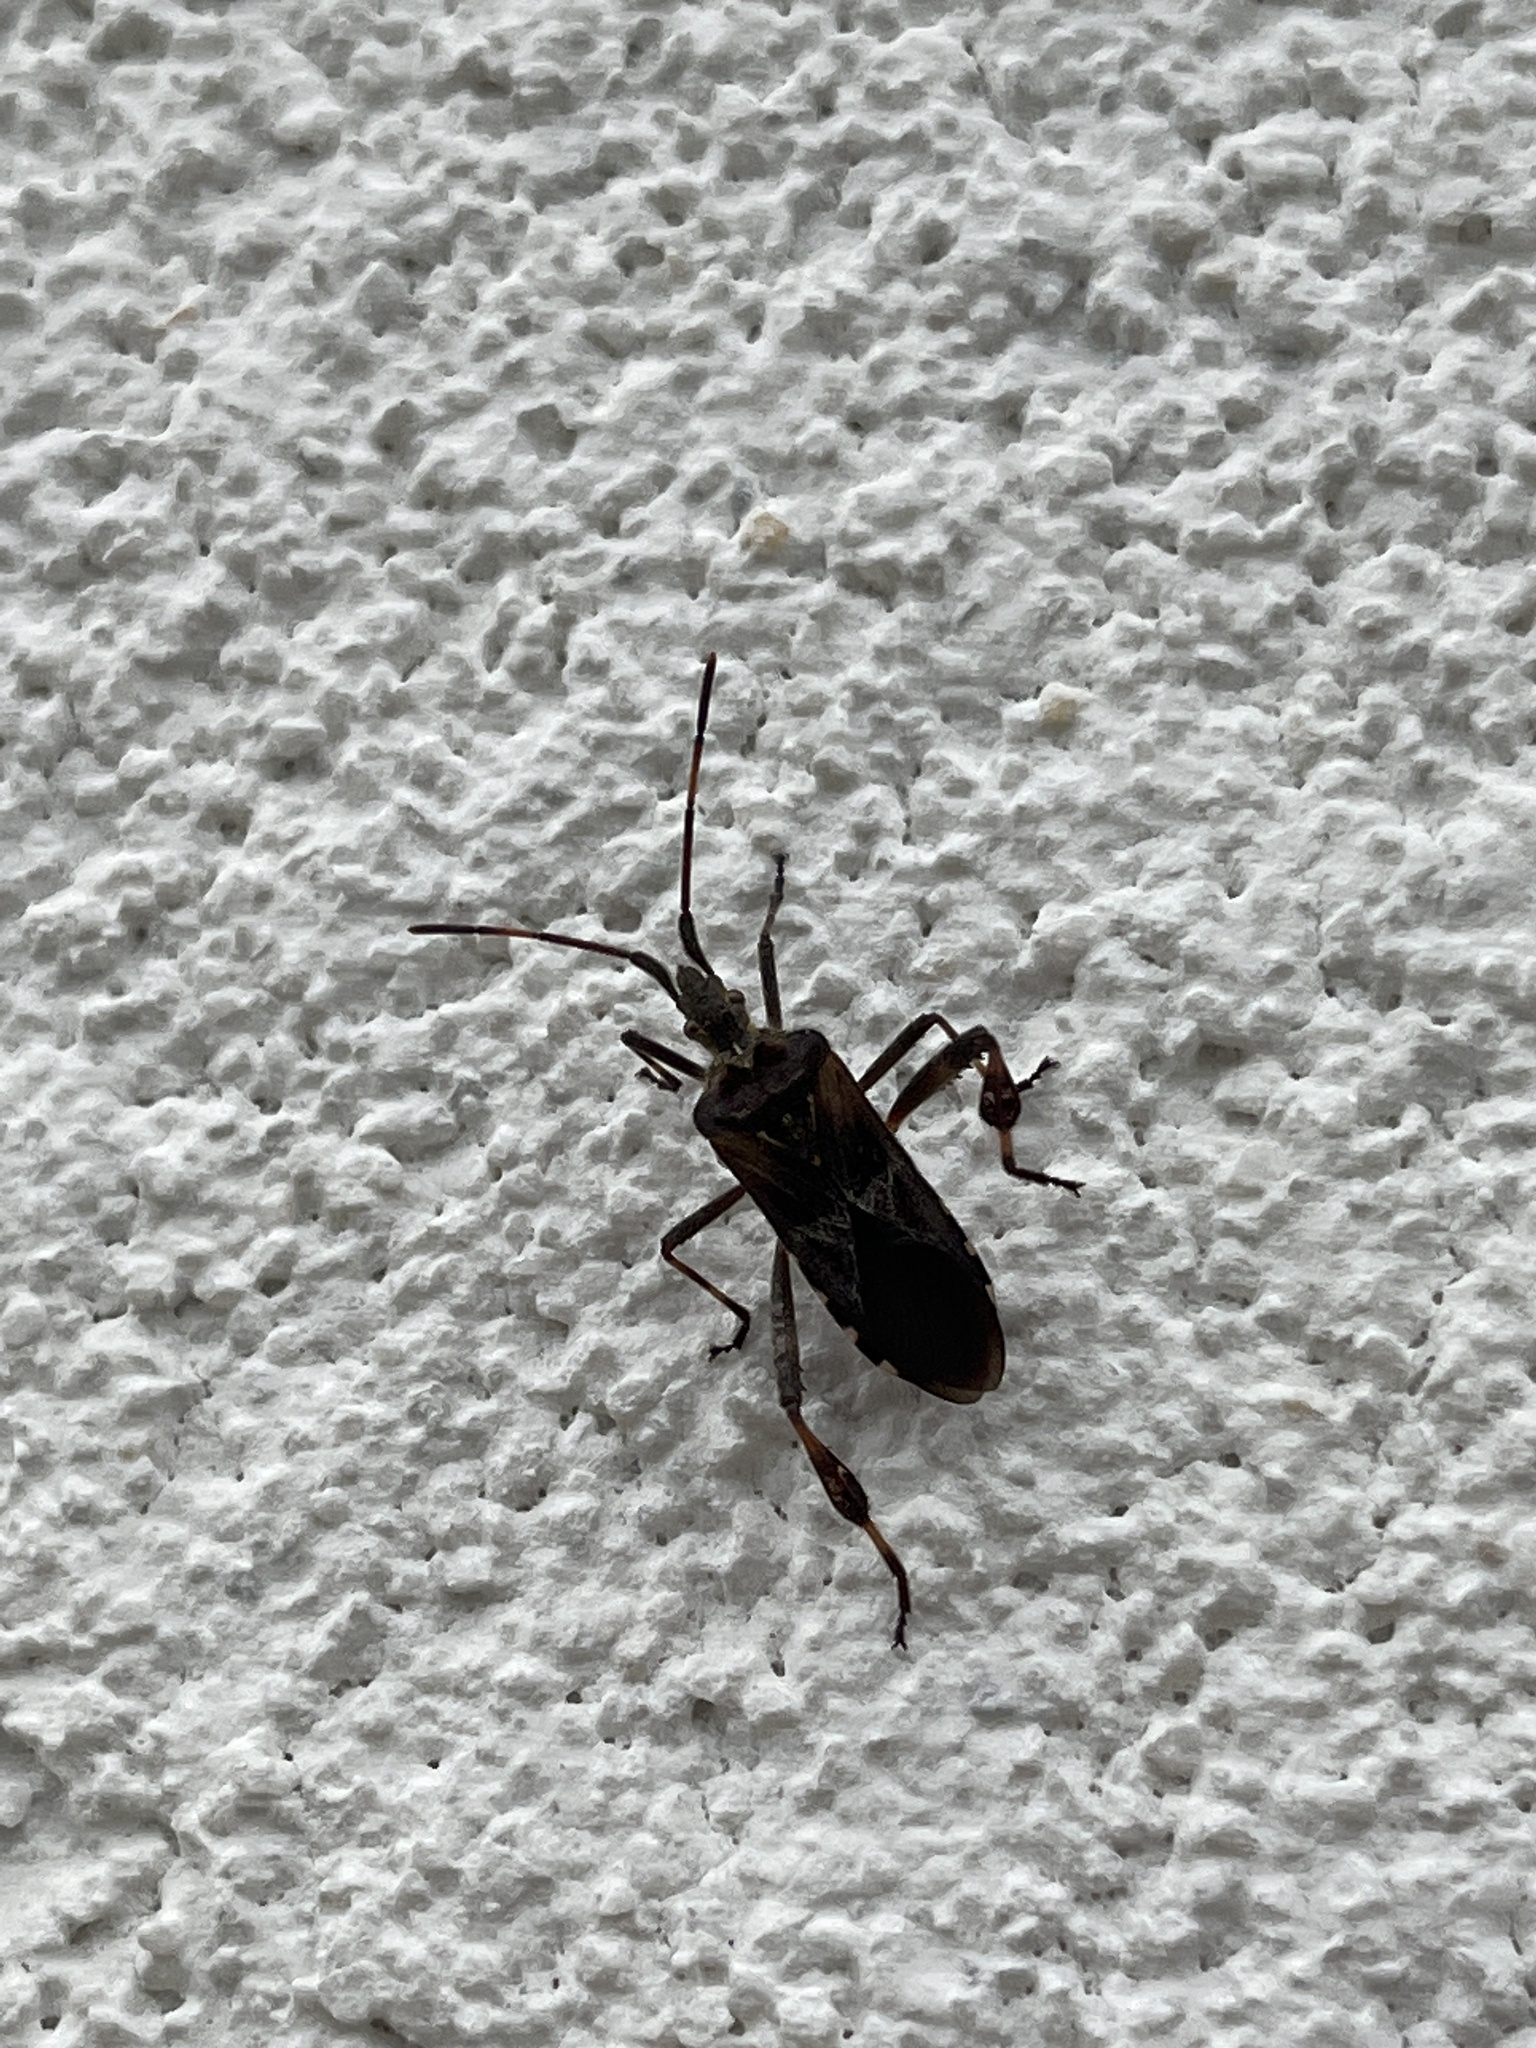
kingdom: Animalia
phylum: Arthropoda
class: Insecta
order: Hemiptera
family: Coreidae
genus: Leptoglossus
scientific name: Leptoglossus occidentalis
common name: Western conifer-seed bug
